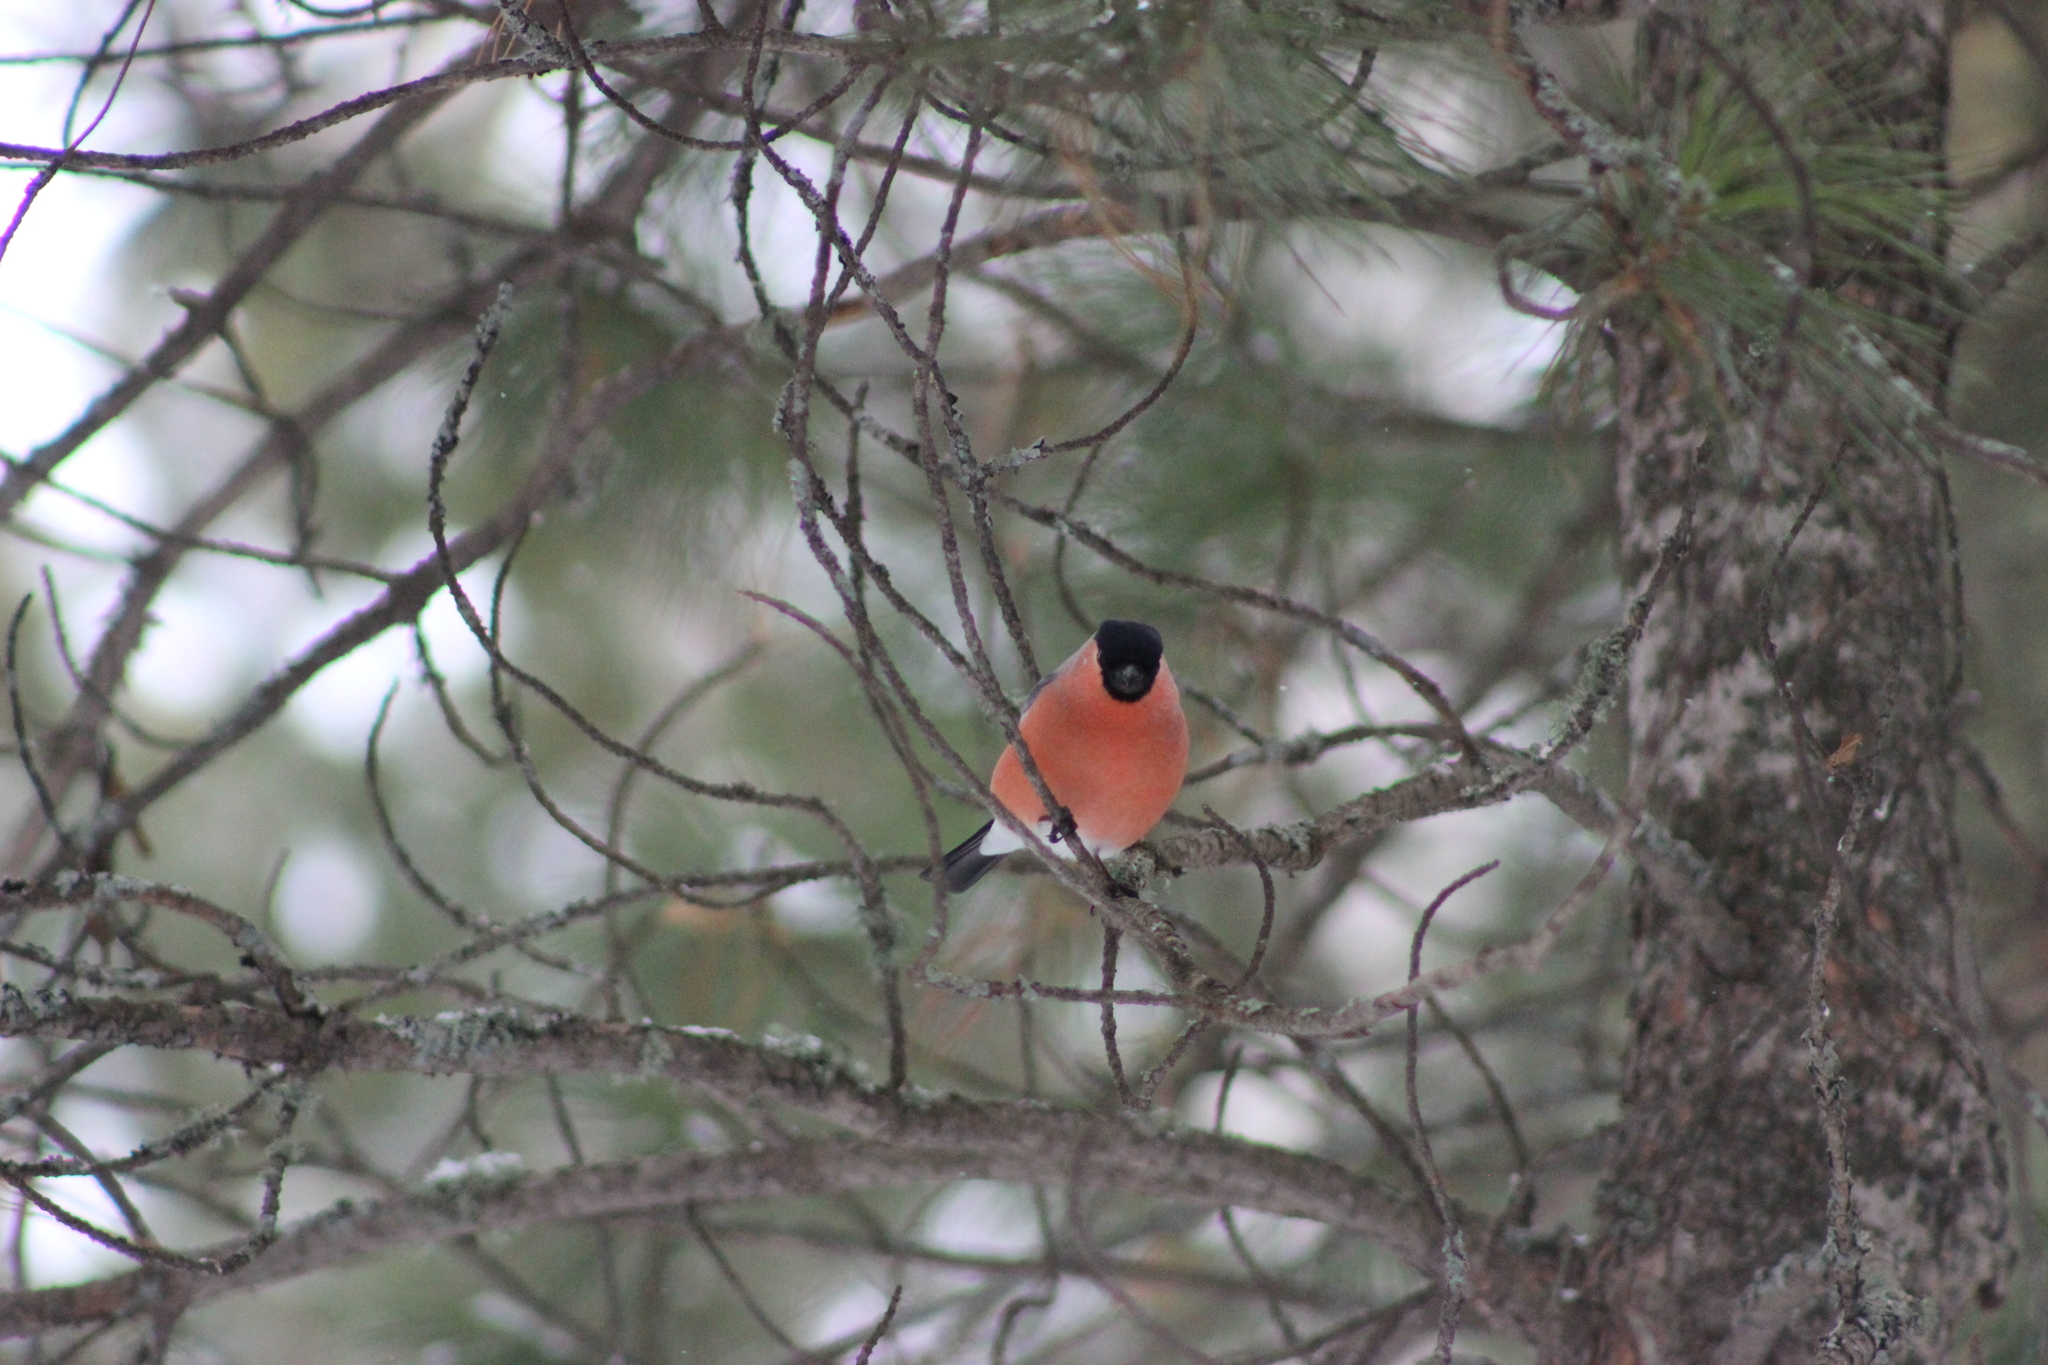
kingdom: Animalia
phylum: Chordata
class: Aves
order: Passeriformes
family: Fringillidae
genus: Pyrrhula
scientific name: Pyrrhula pyrrhula
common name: Eurasian bullfinch
